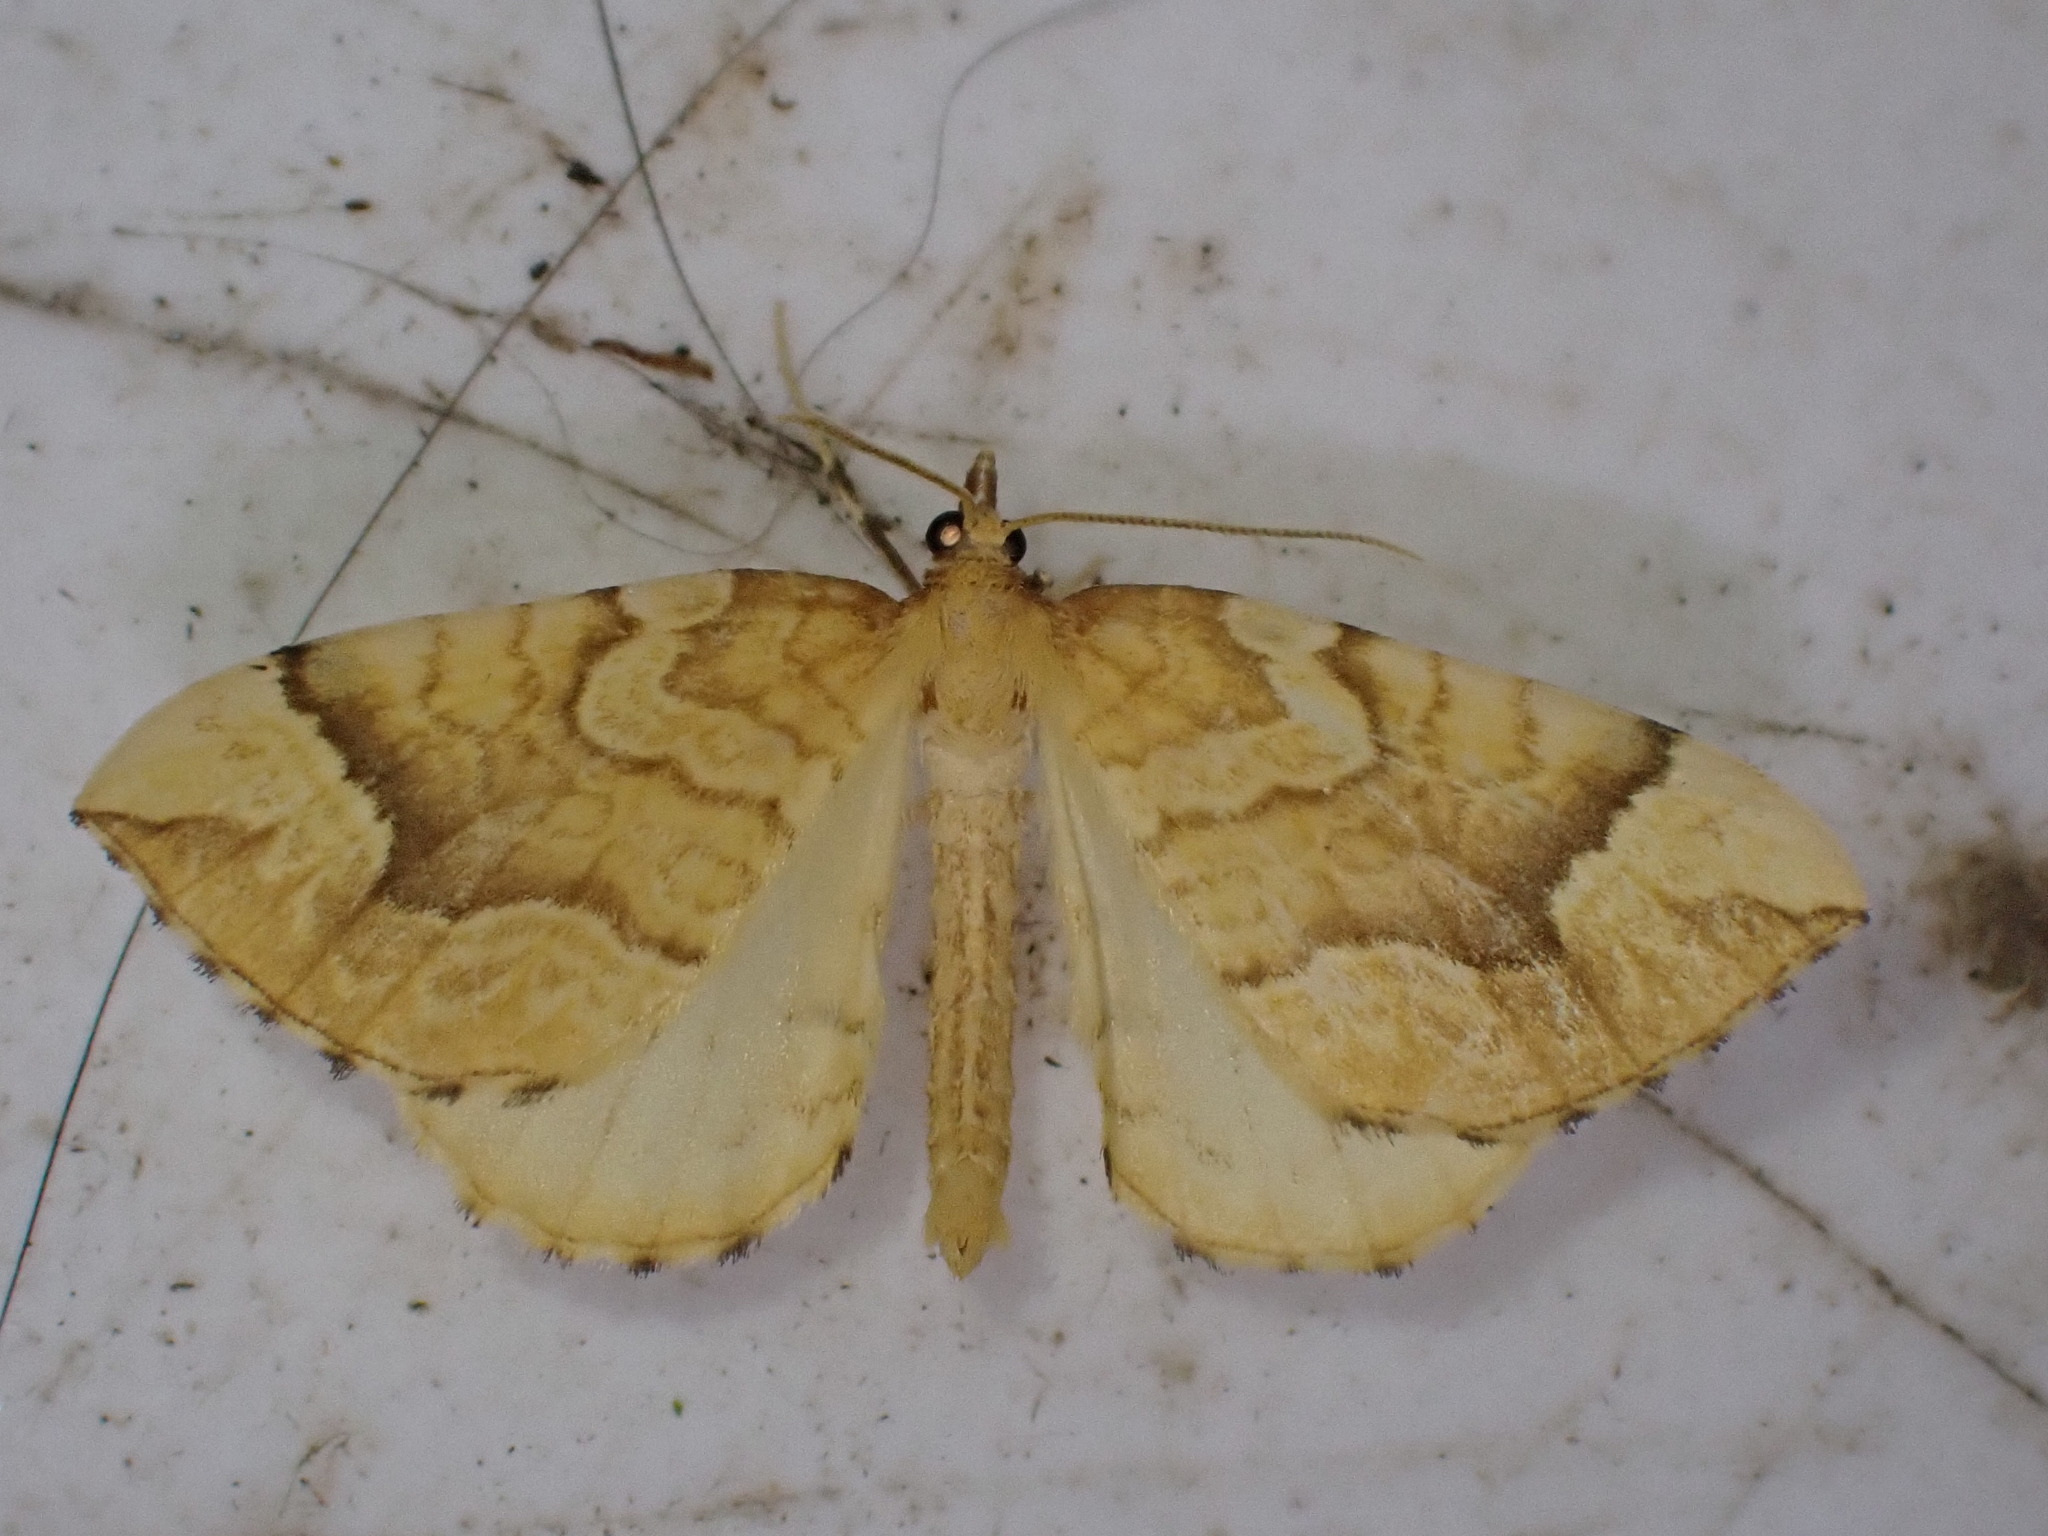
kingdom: Animalia
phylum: Arthropoda
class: Insecta
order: Lepidoptera
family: Geometridae
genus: Eulithis
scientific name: Eulithis mellinata
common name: Spinach
